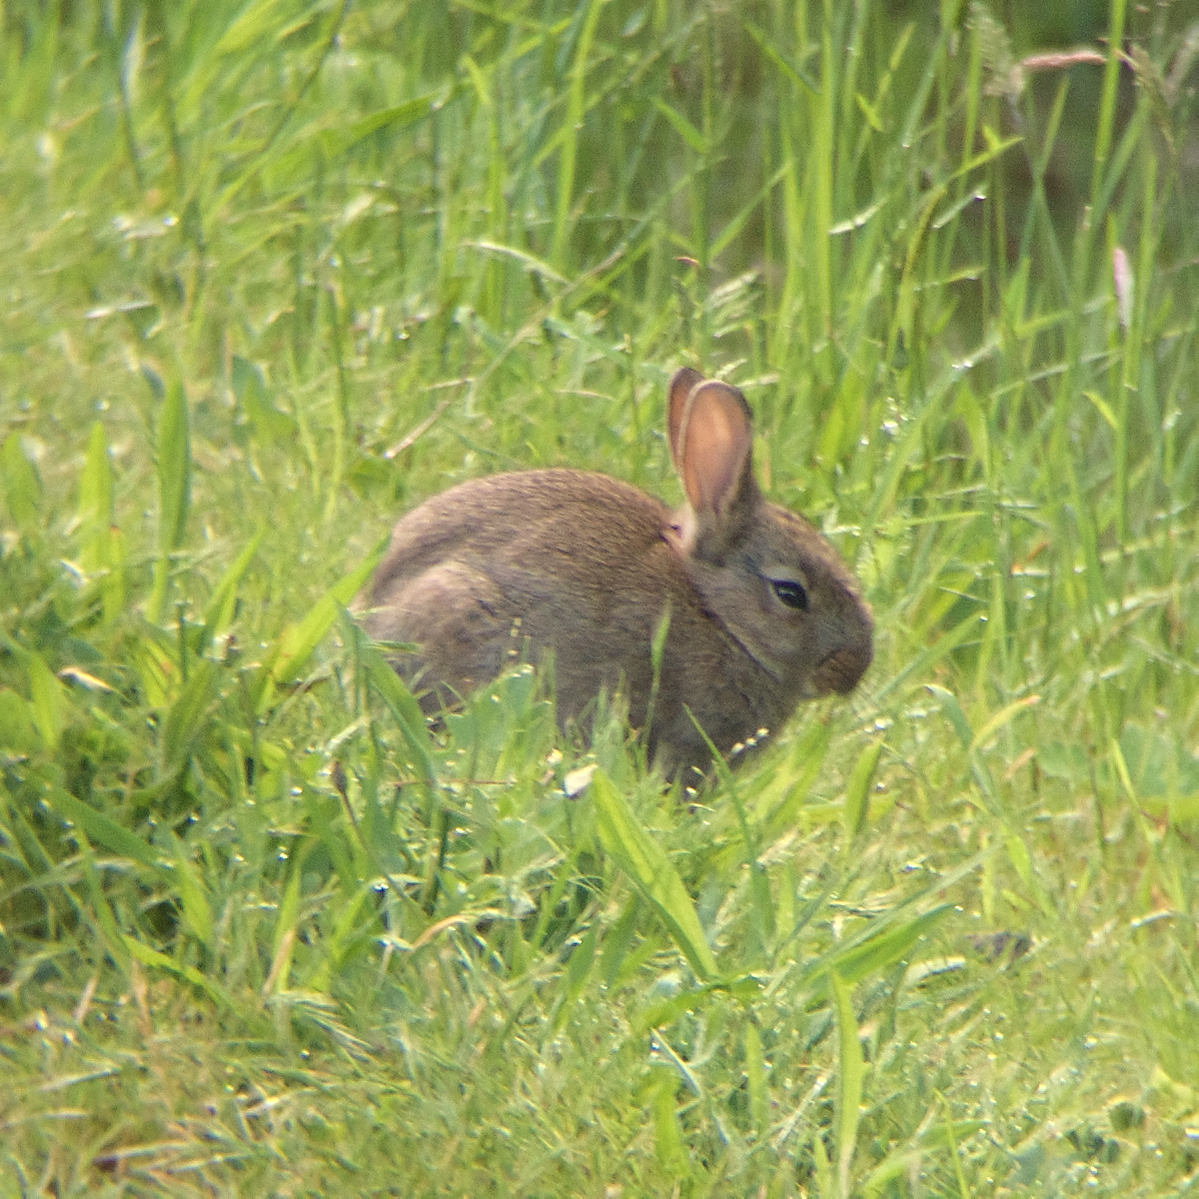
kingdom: Animalia
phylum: Chordata
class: Mammalia
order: Lagomorpha
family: Leporidae
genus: Oryctolagus
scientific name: Oryctolagus cuniculus
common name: European rabbit
